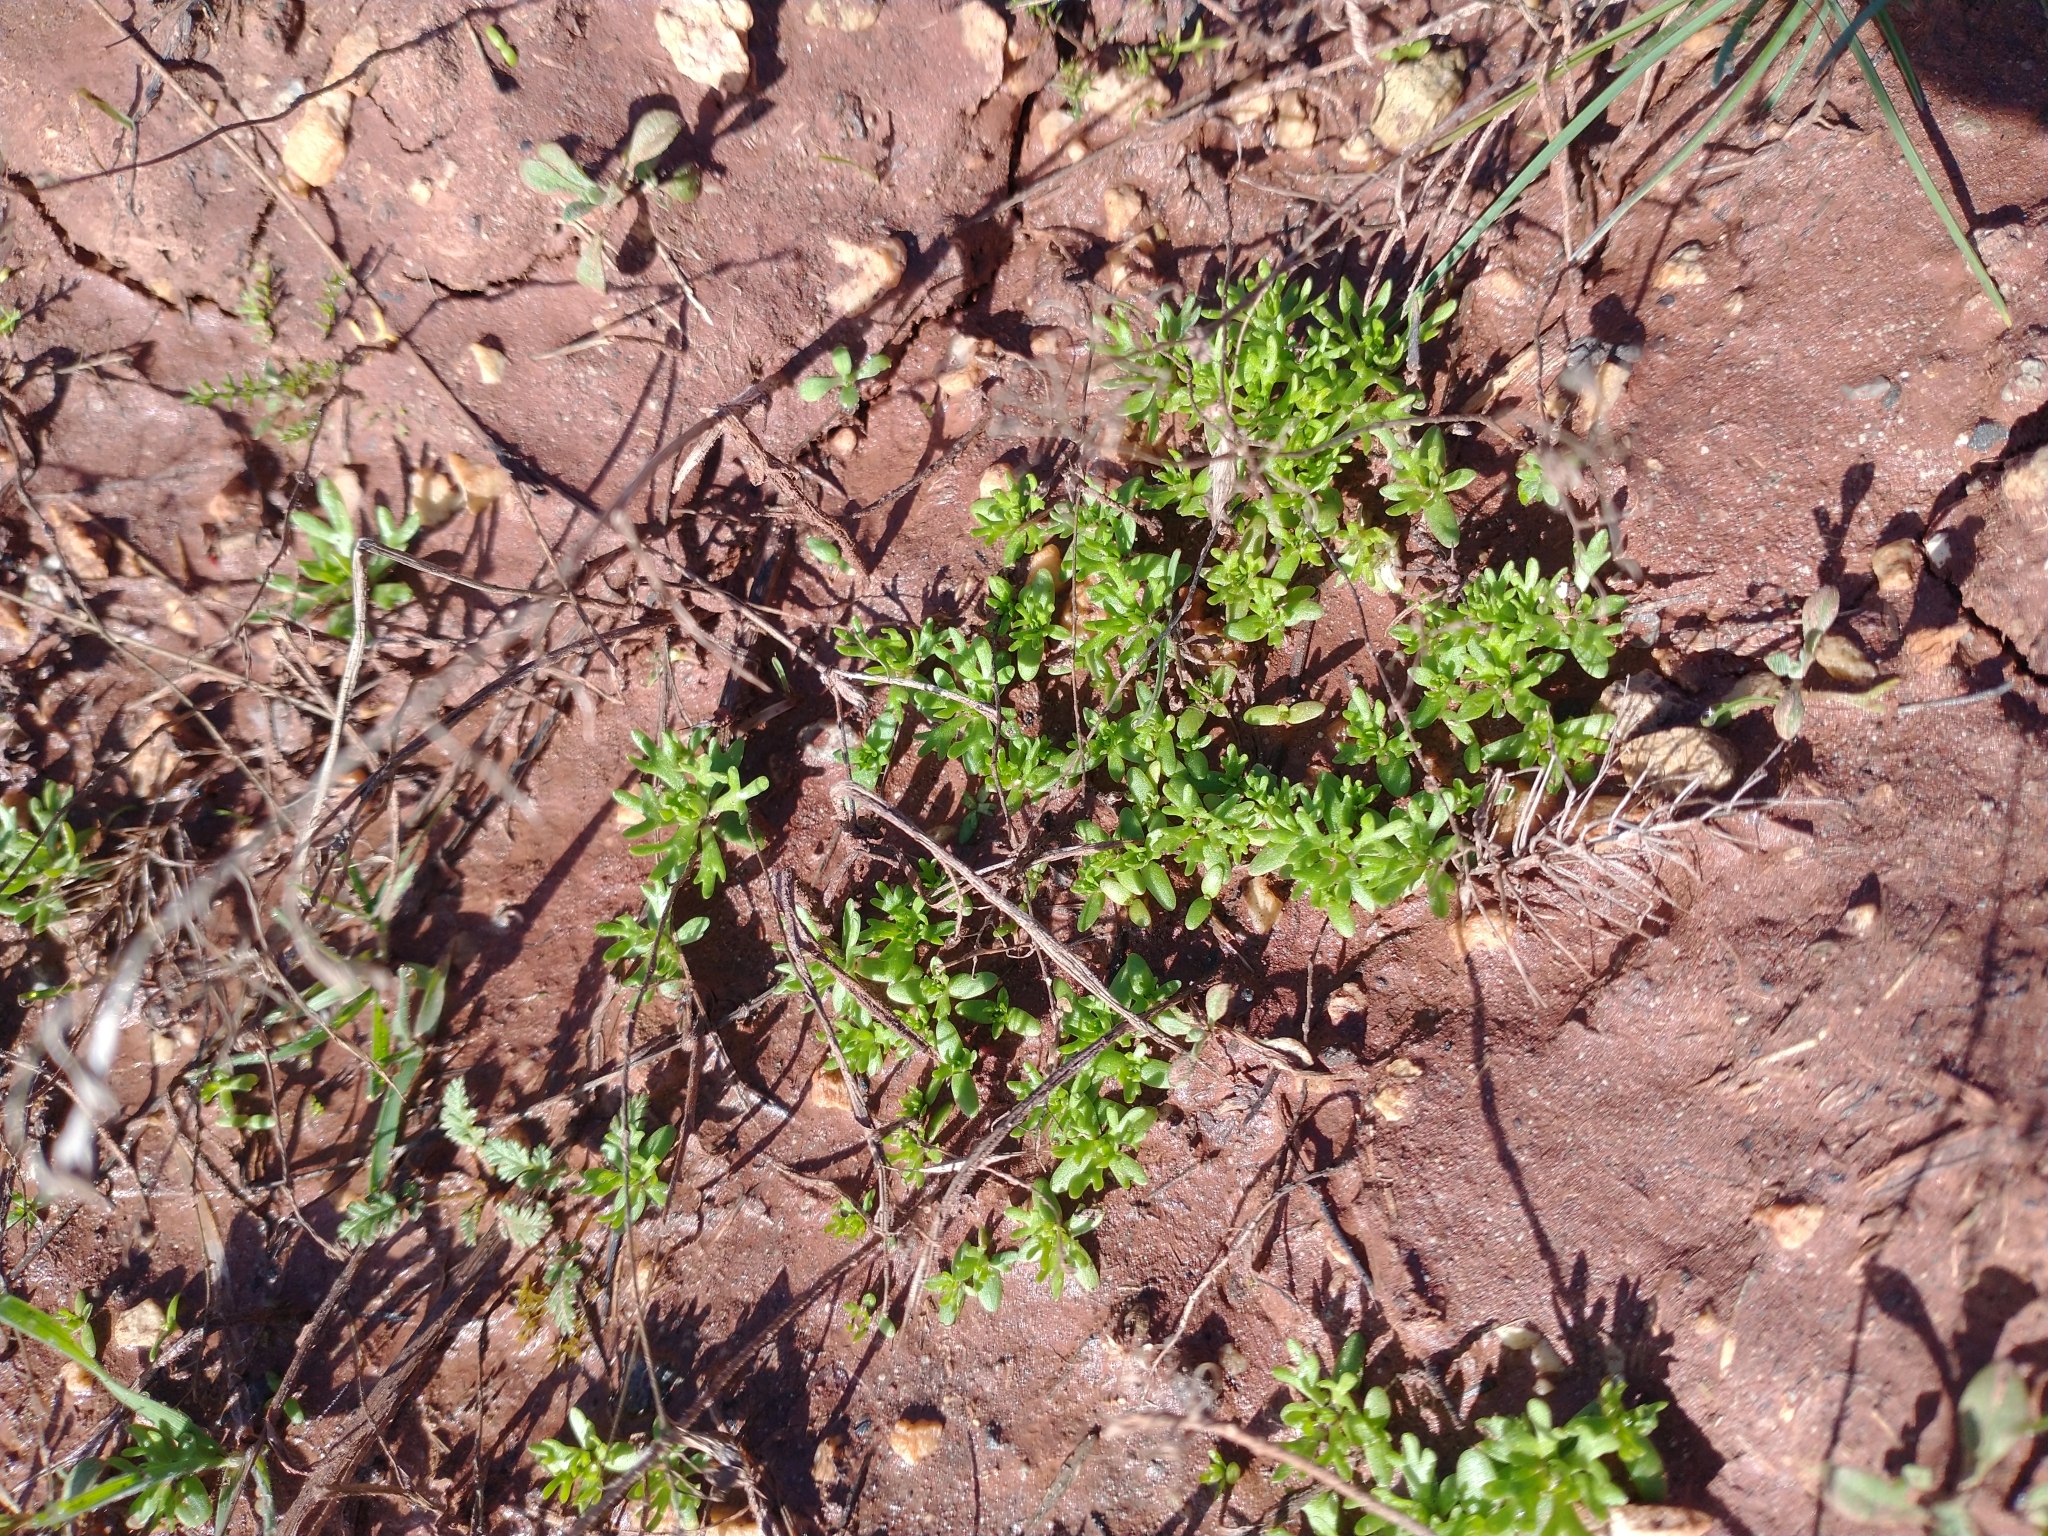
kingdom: Plantae
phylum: Tracheophyta
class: Magnoliopsida
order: Ranunculales
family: Ranunculaceae
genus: Ceratocephala
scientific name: Ceratocephala orthoceras
